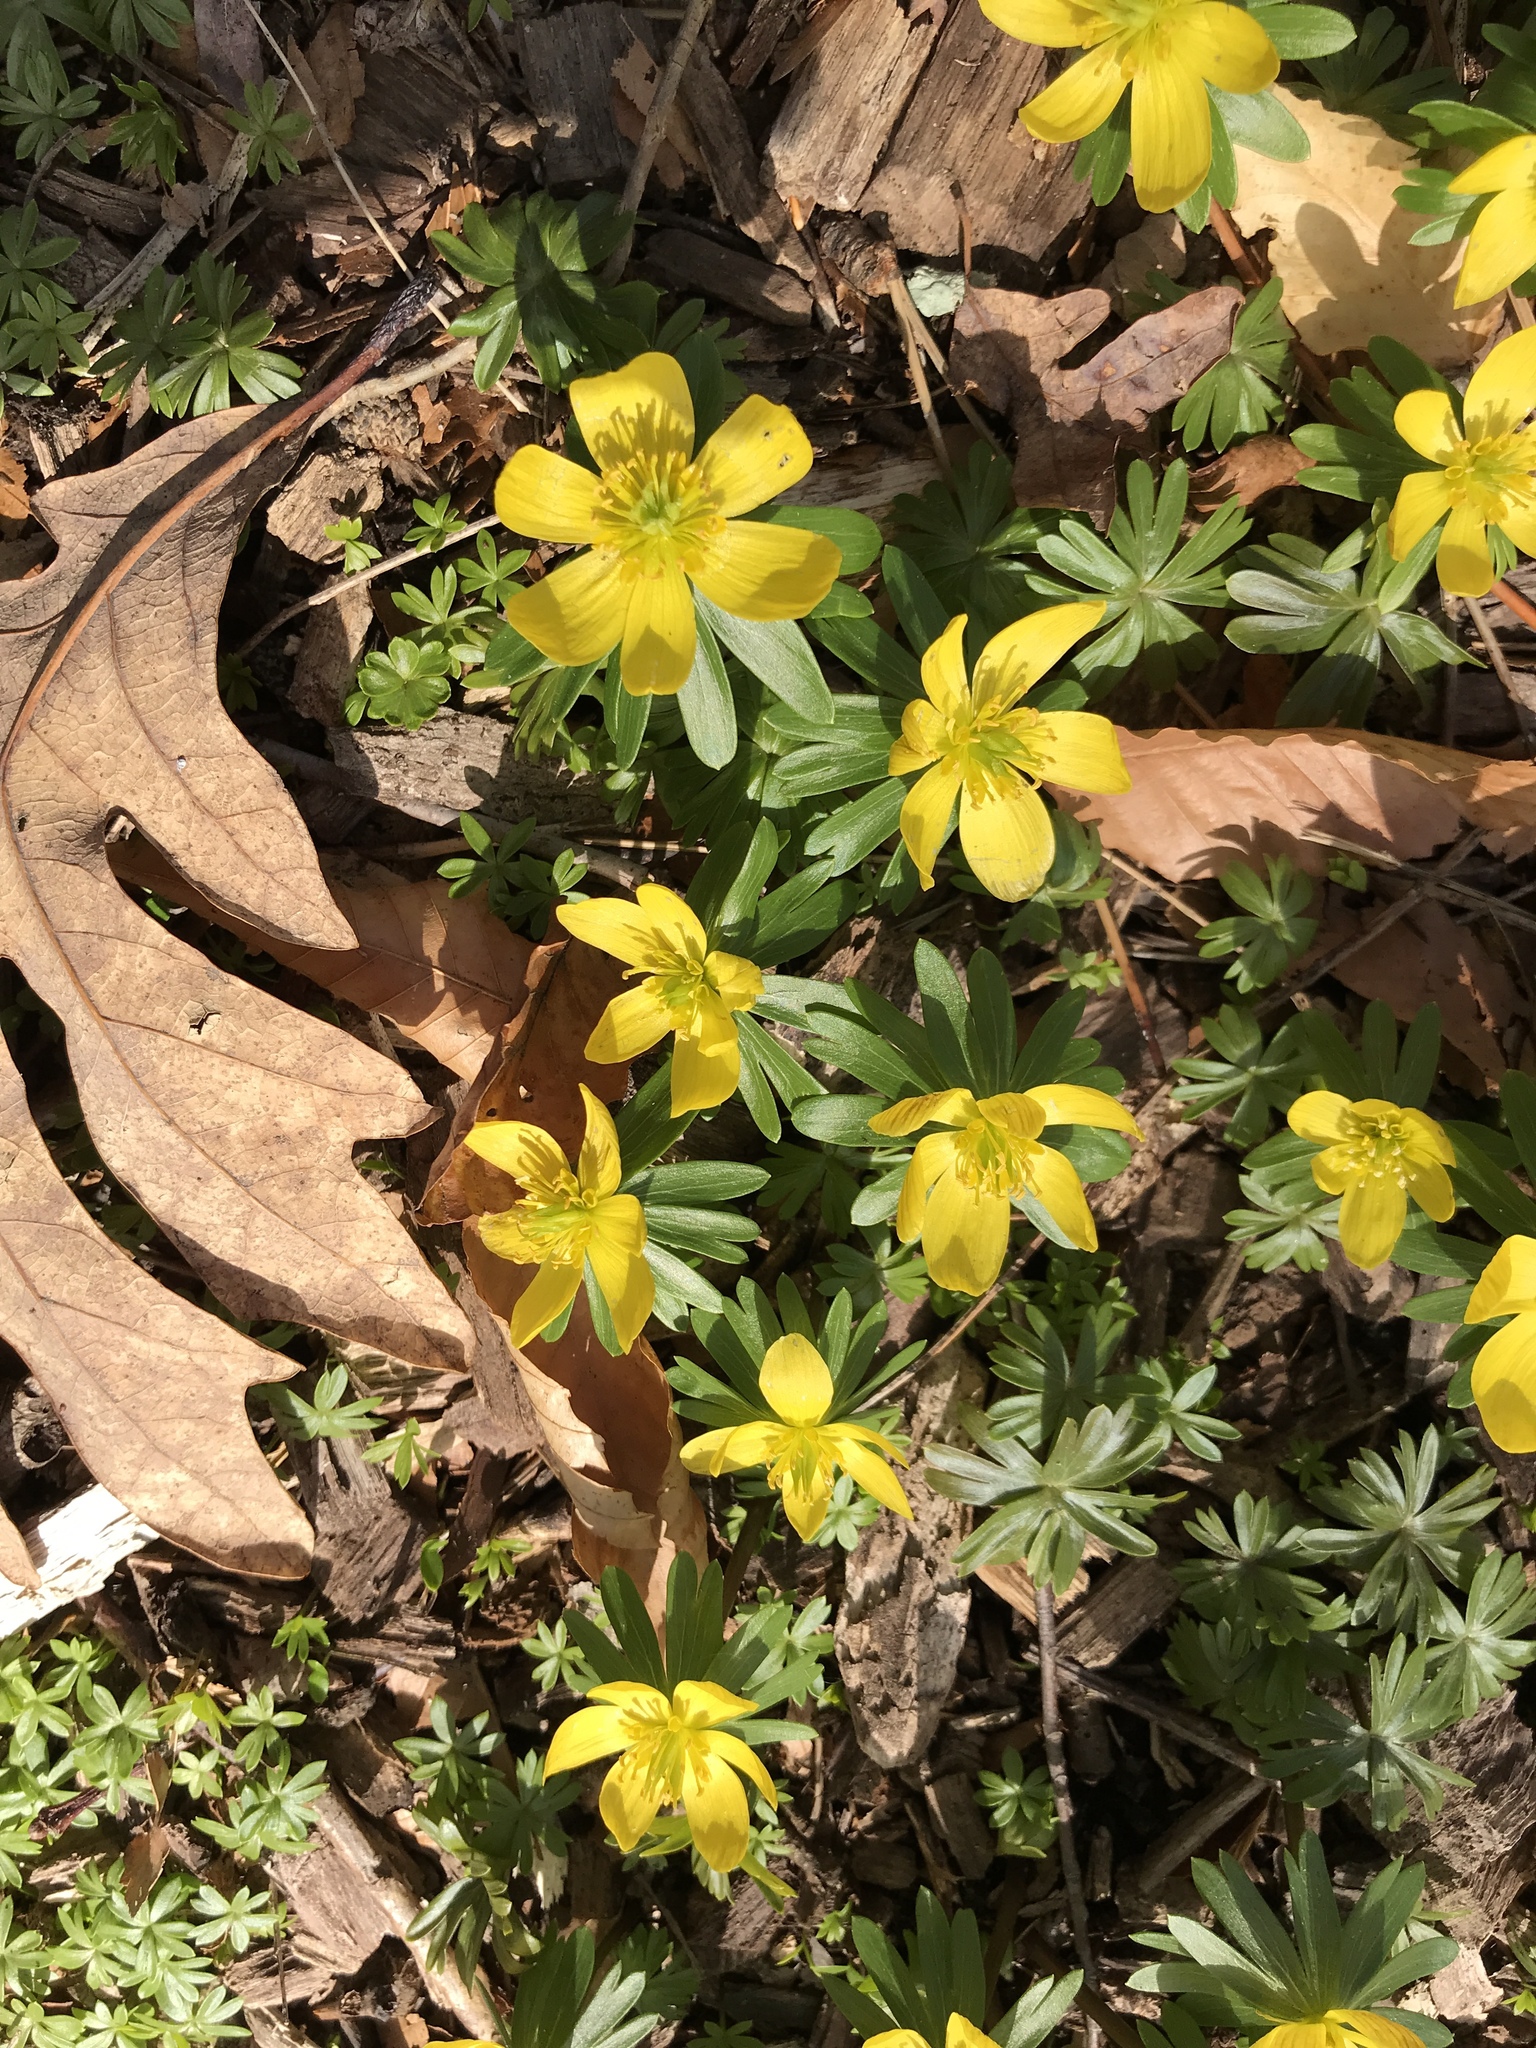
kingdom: Plantae
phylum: Tracheophyta
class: Magnoliopsida
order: Ranunculales
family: Ranunculaceae
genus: Eranthis
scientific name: Eranthis hyemalis
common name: Winter aconite
